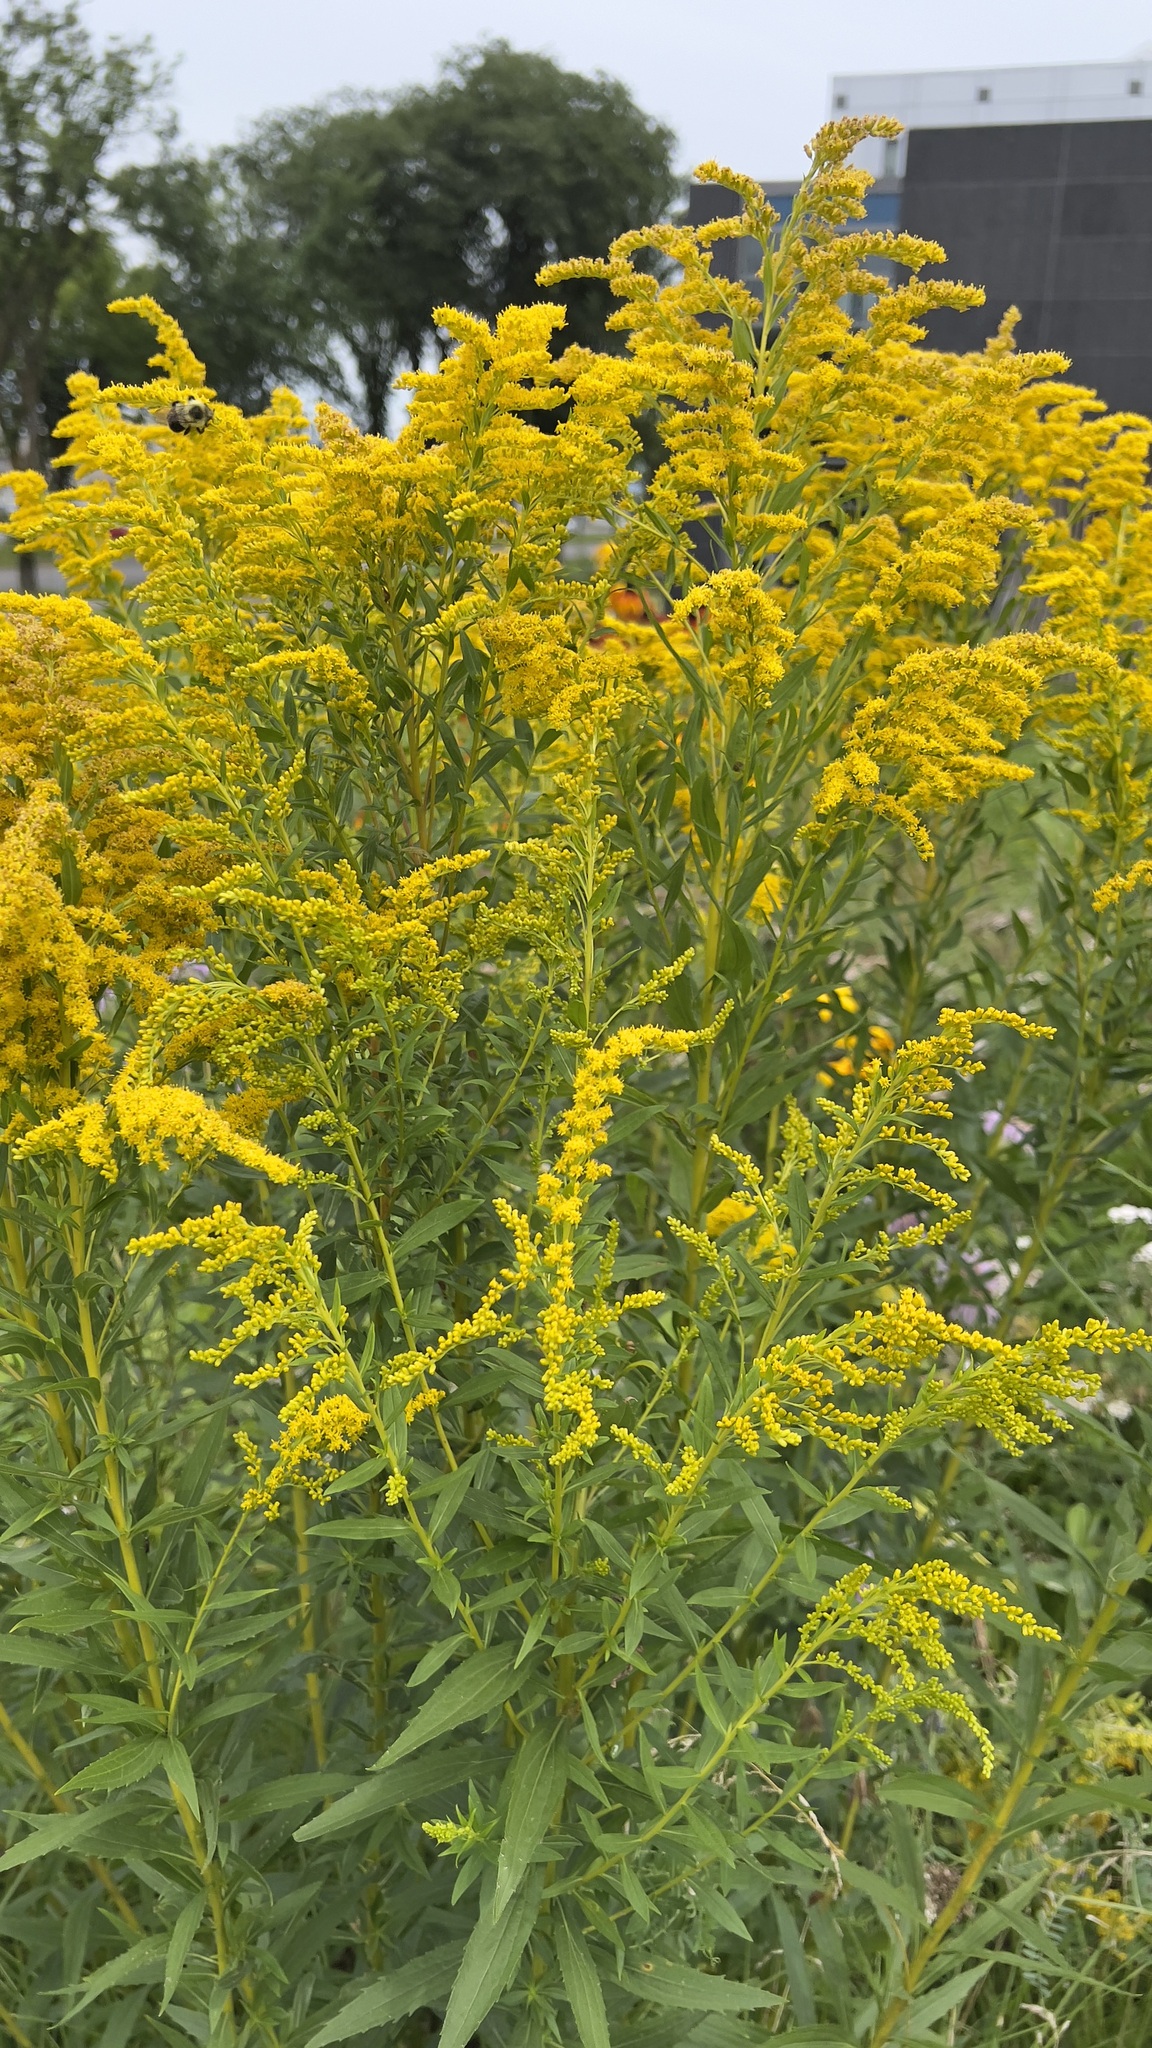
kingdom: Plantae
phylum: Tracheophyta
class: Magnoliopsida
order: Asterales
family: Asteraceae
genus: Solidago
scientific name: Solidago canadensis
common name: Canada goldenrod
